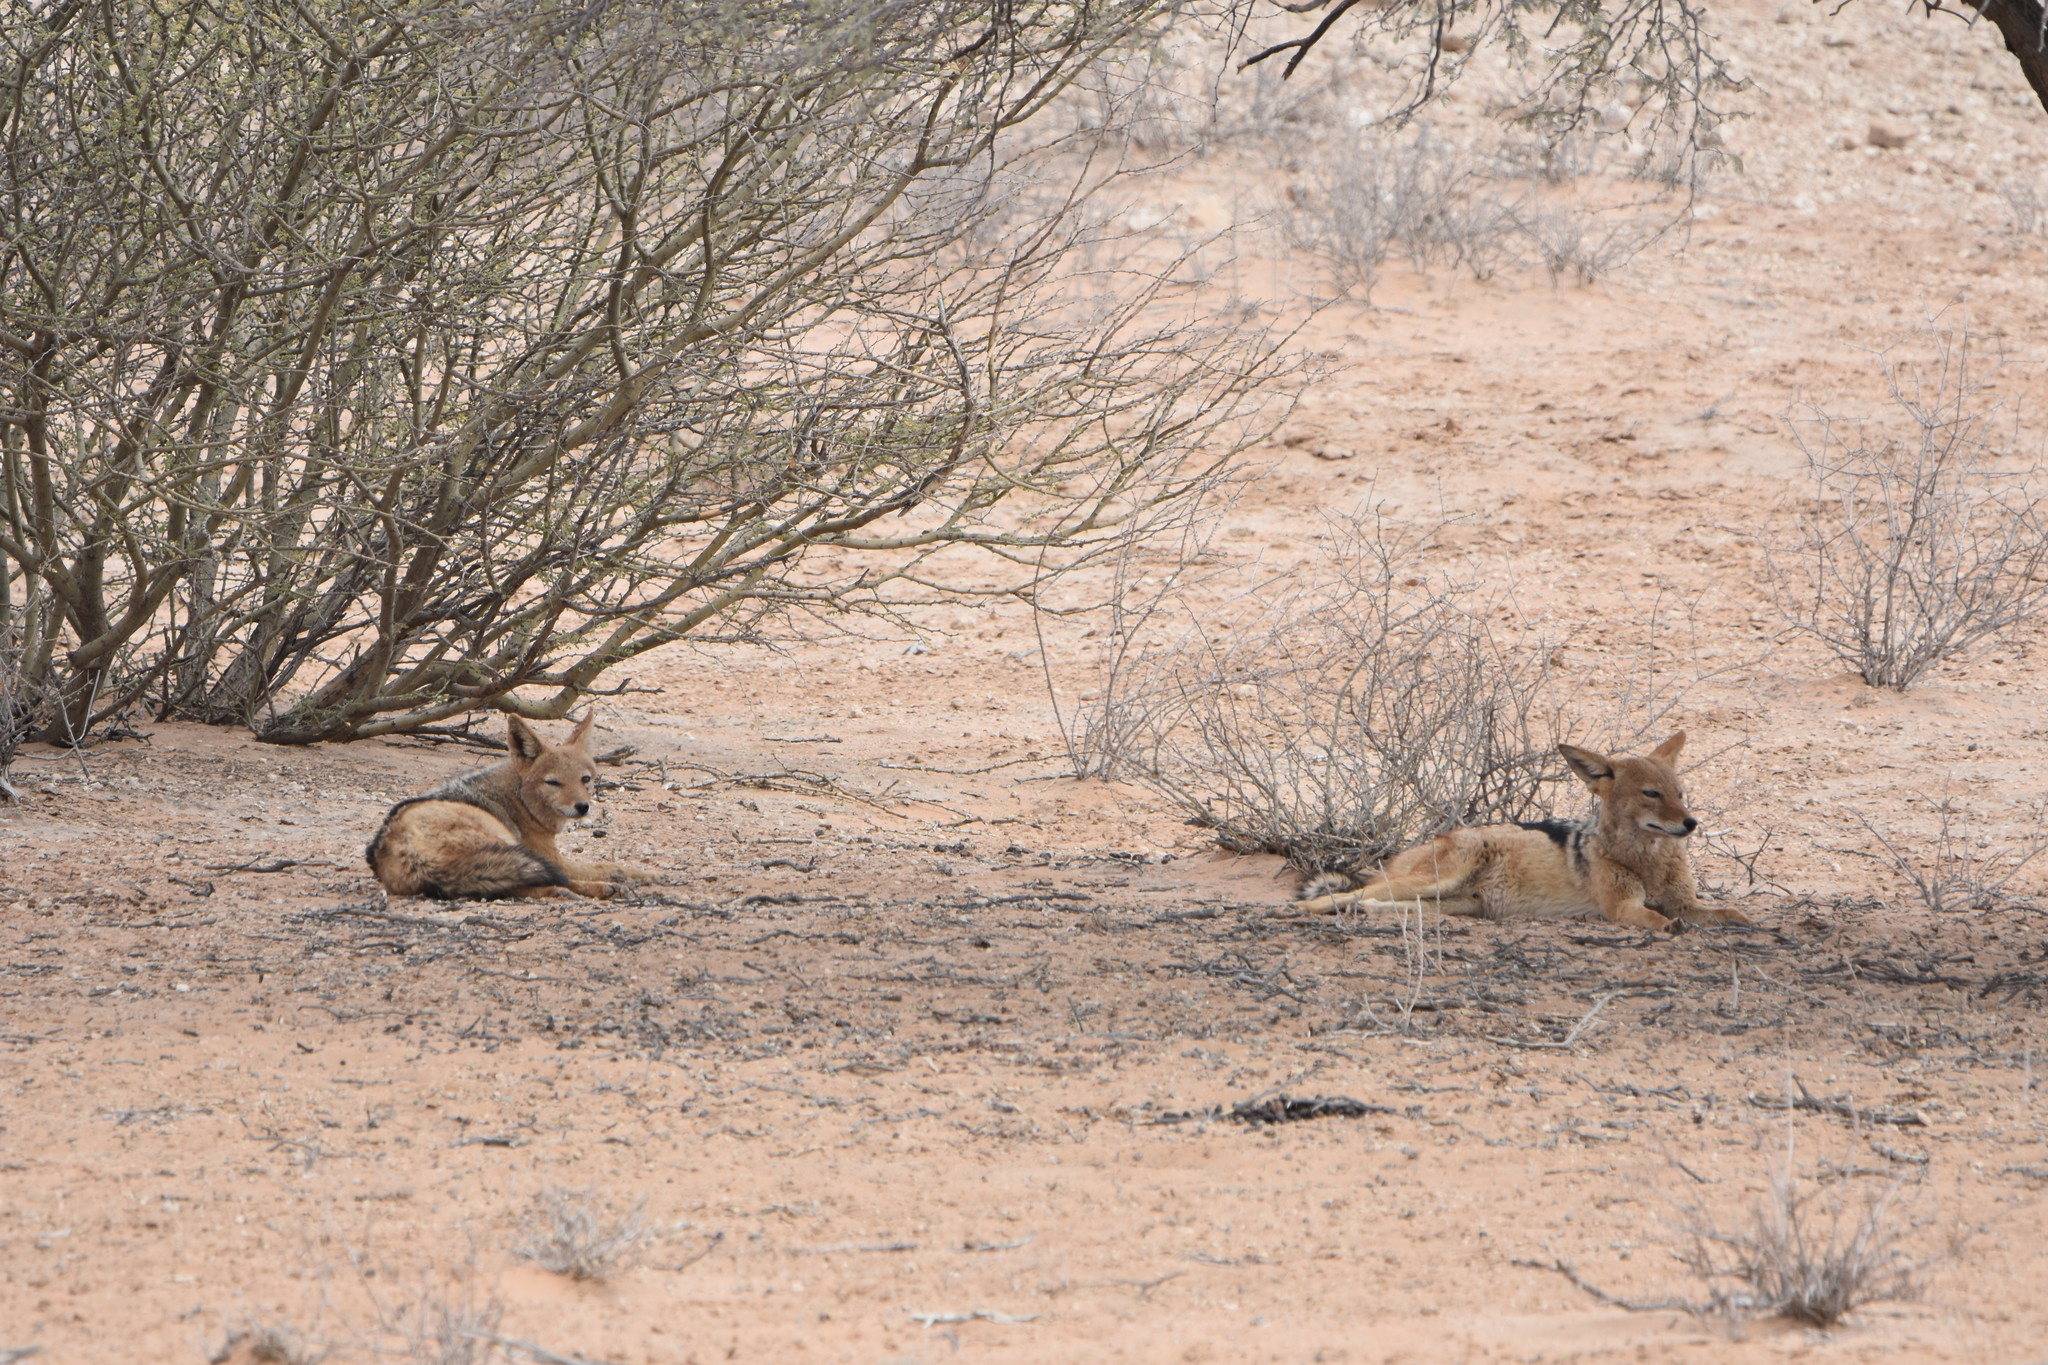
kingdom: Animalia
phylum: Chordata
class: Mammalia
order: Carnivora
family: Canidae
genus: Lupulella
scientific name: Lupulella
